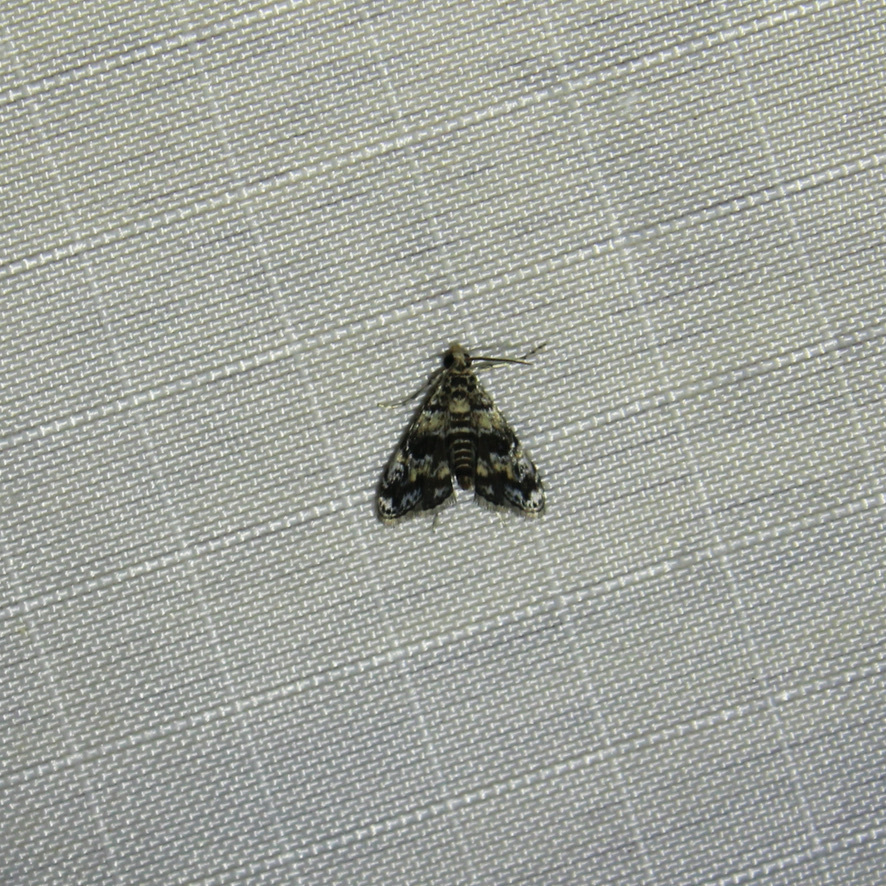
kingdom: Animalia
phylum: Arthropoda
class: Insecta
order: Lepidoptera
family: Crambidae
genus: Elophila
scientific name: Elophila obliteralis
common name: Waterlily leafcutter moth
